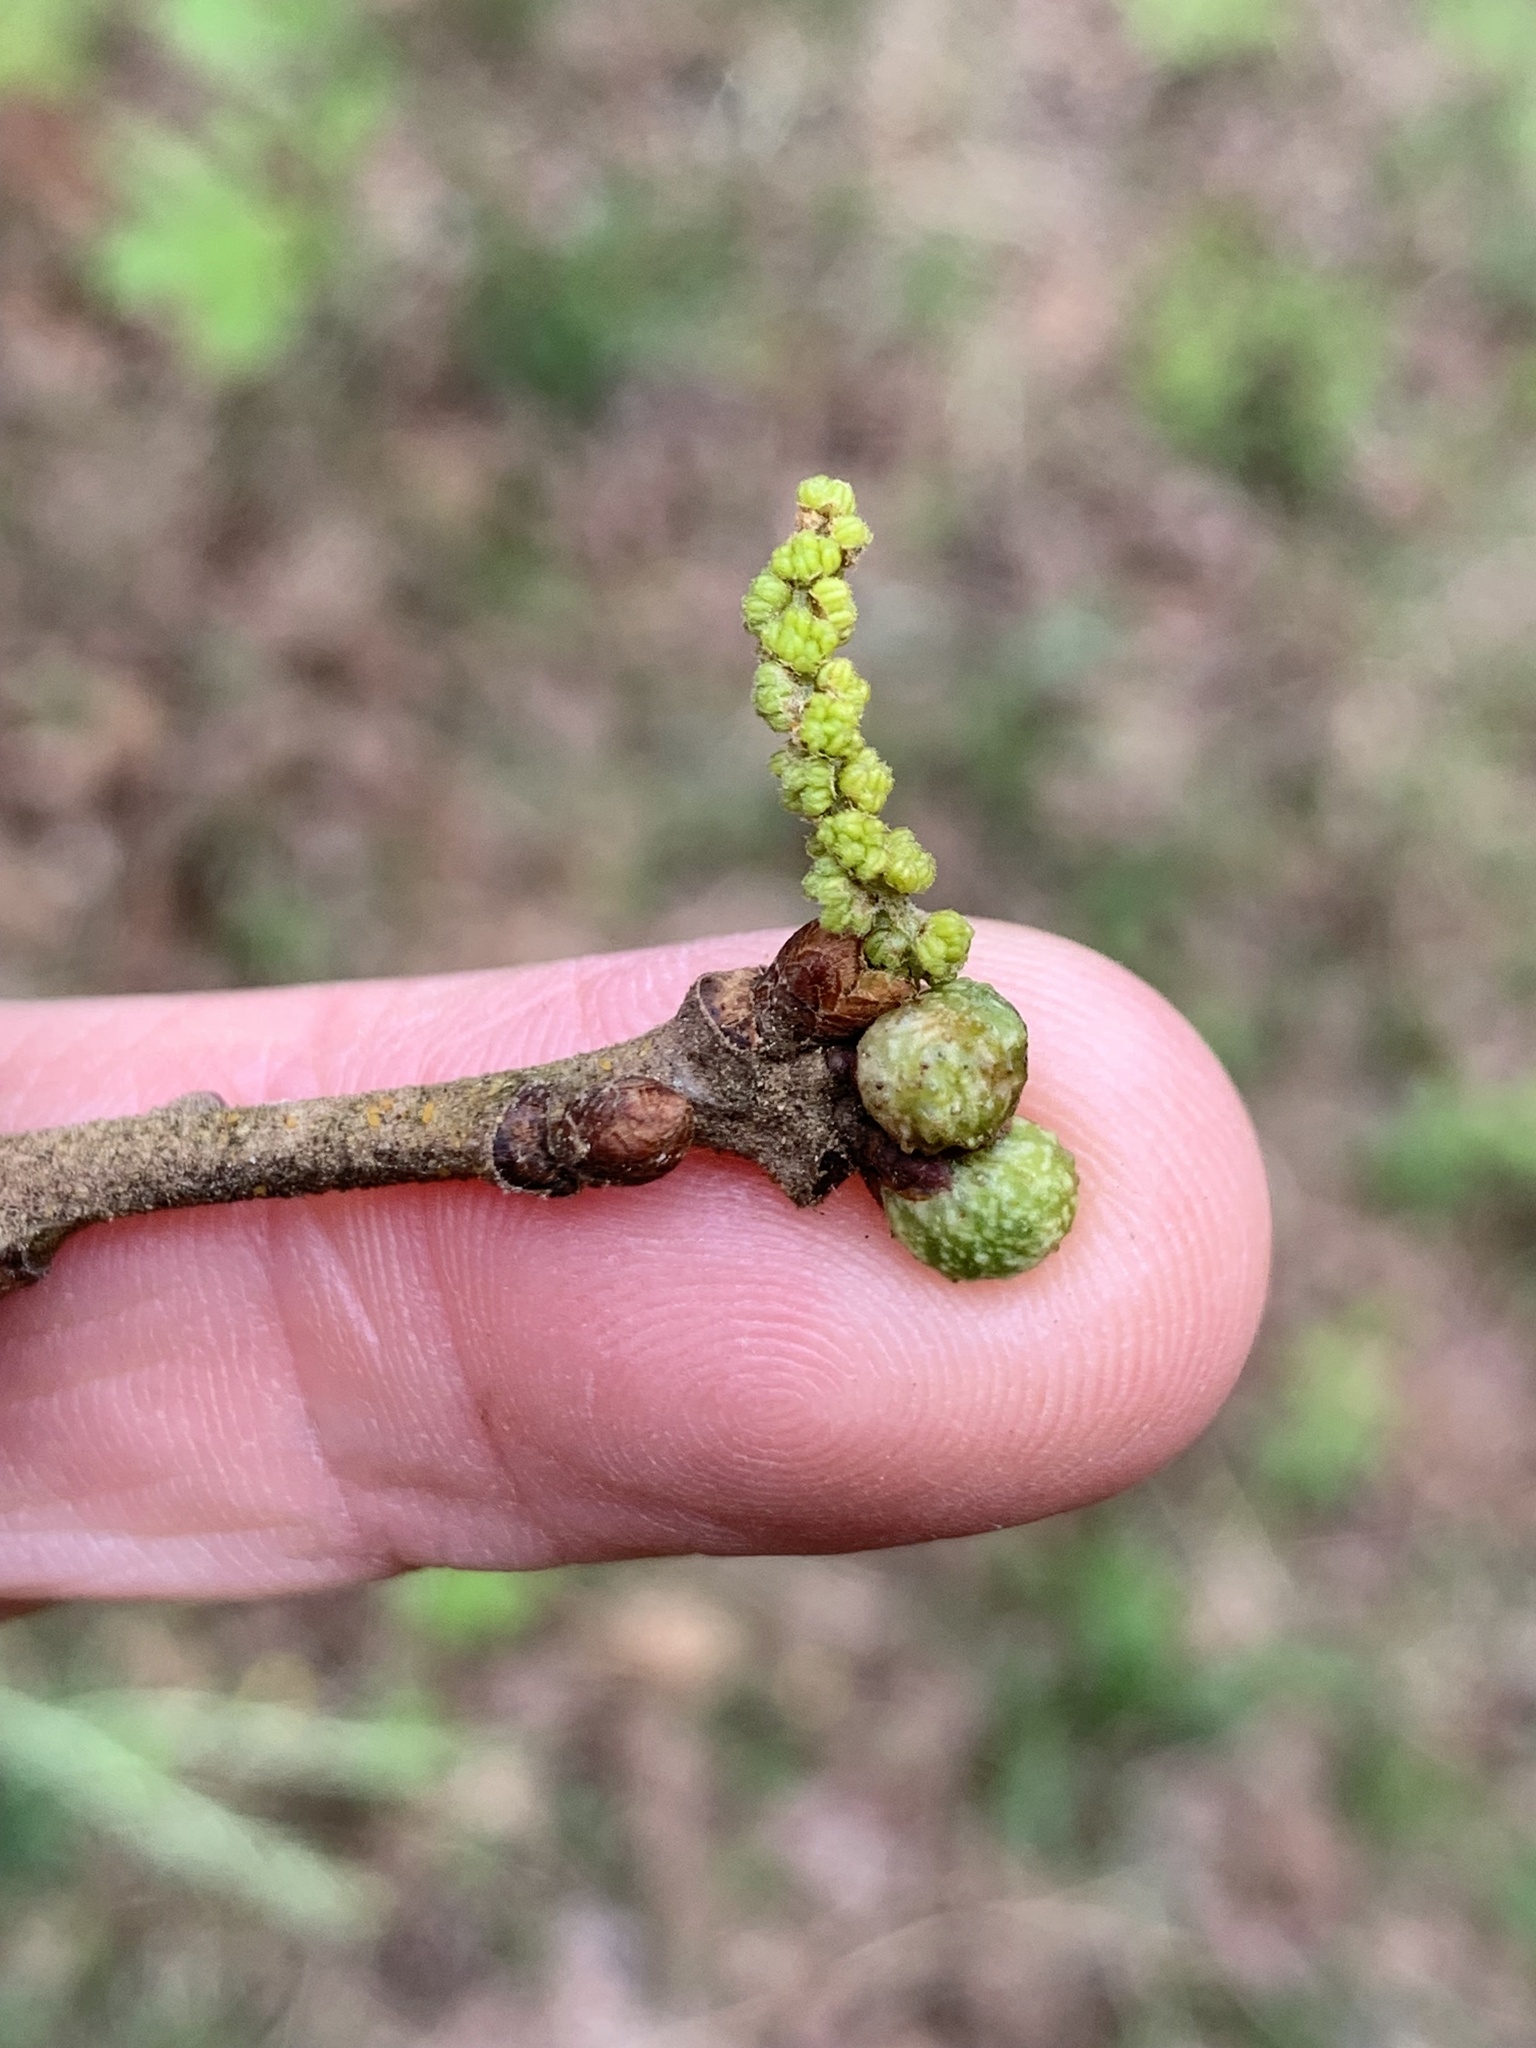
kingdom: Animalia
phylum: Arthropoda
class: Insecta
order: Hymenoptera
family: Cynipidae
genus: Andricus
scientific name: Andricus
